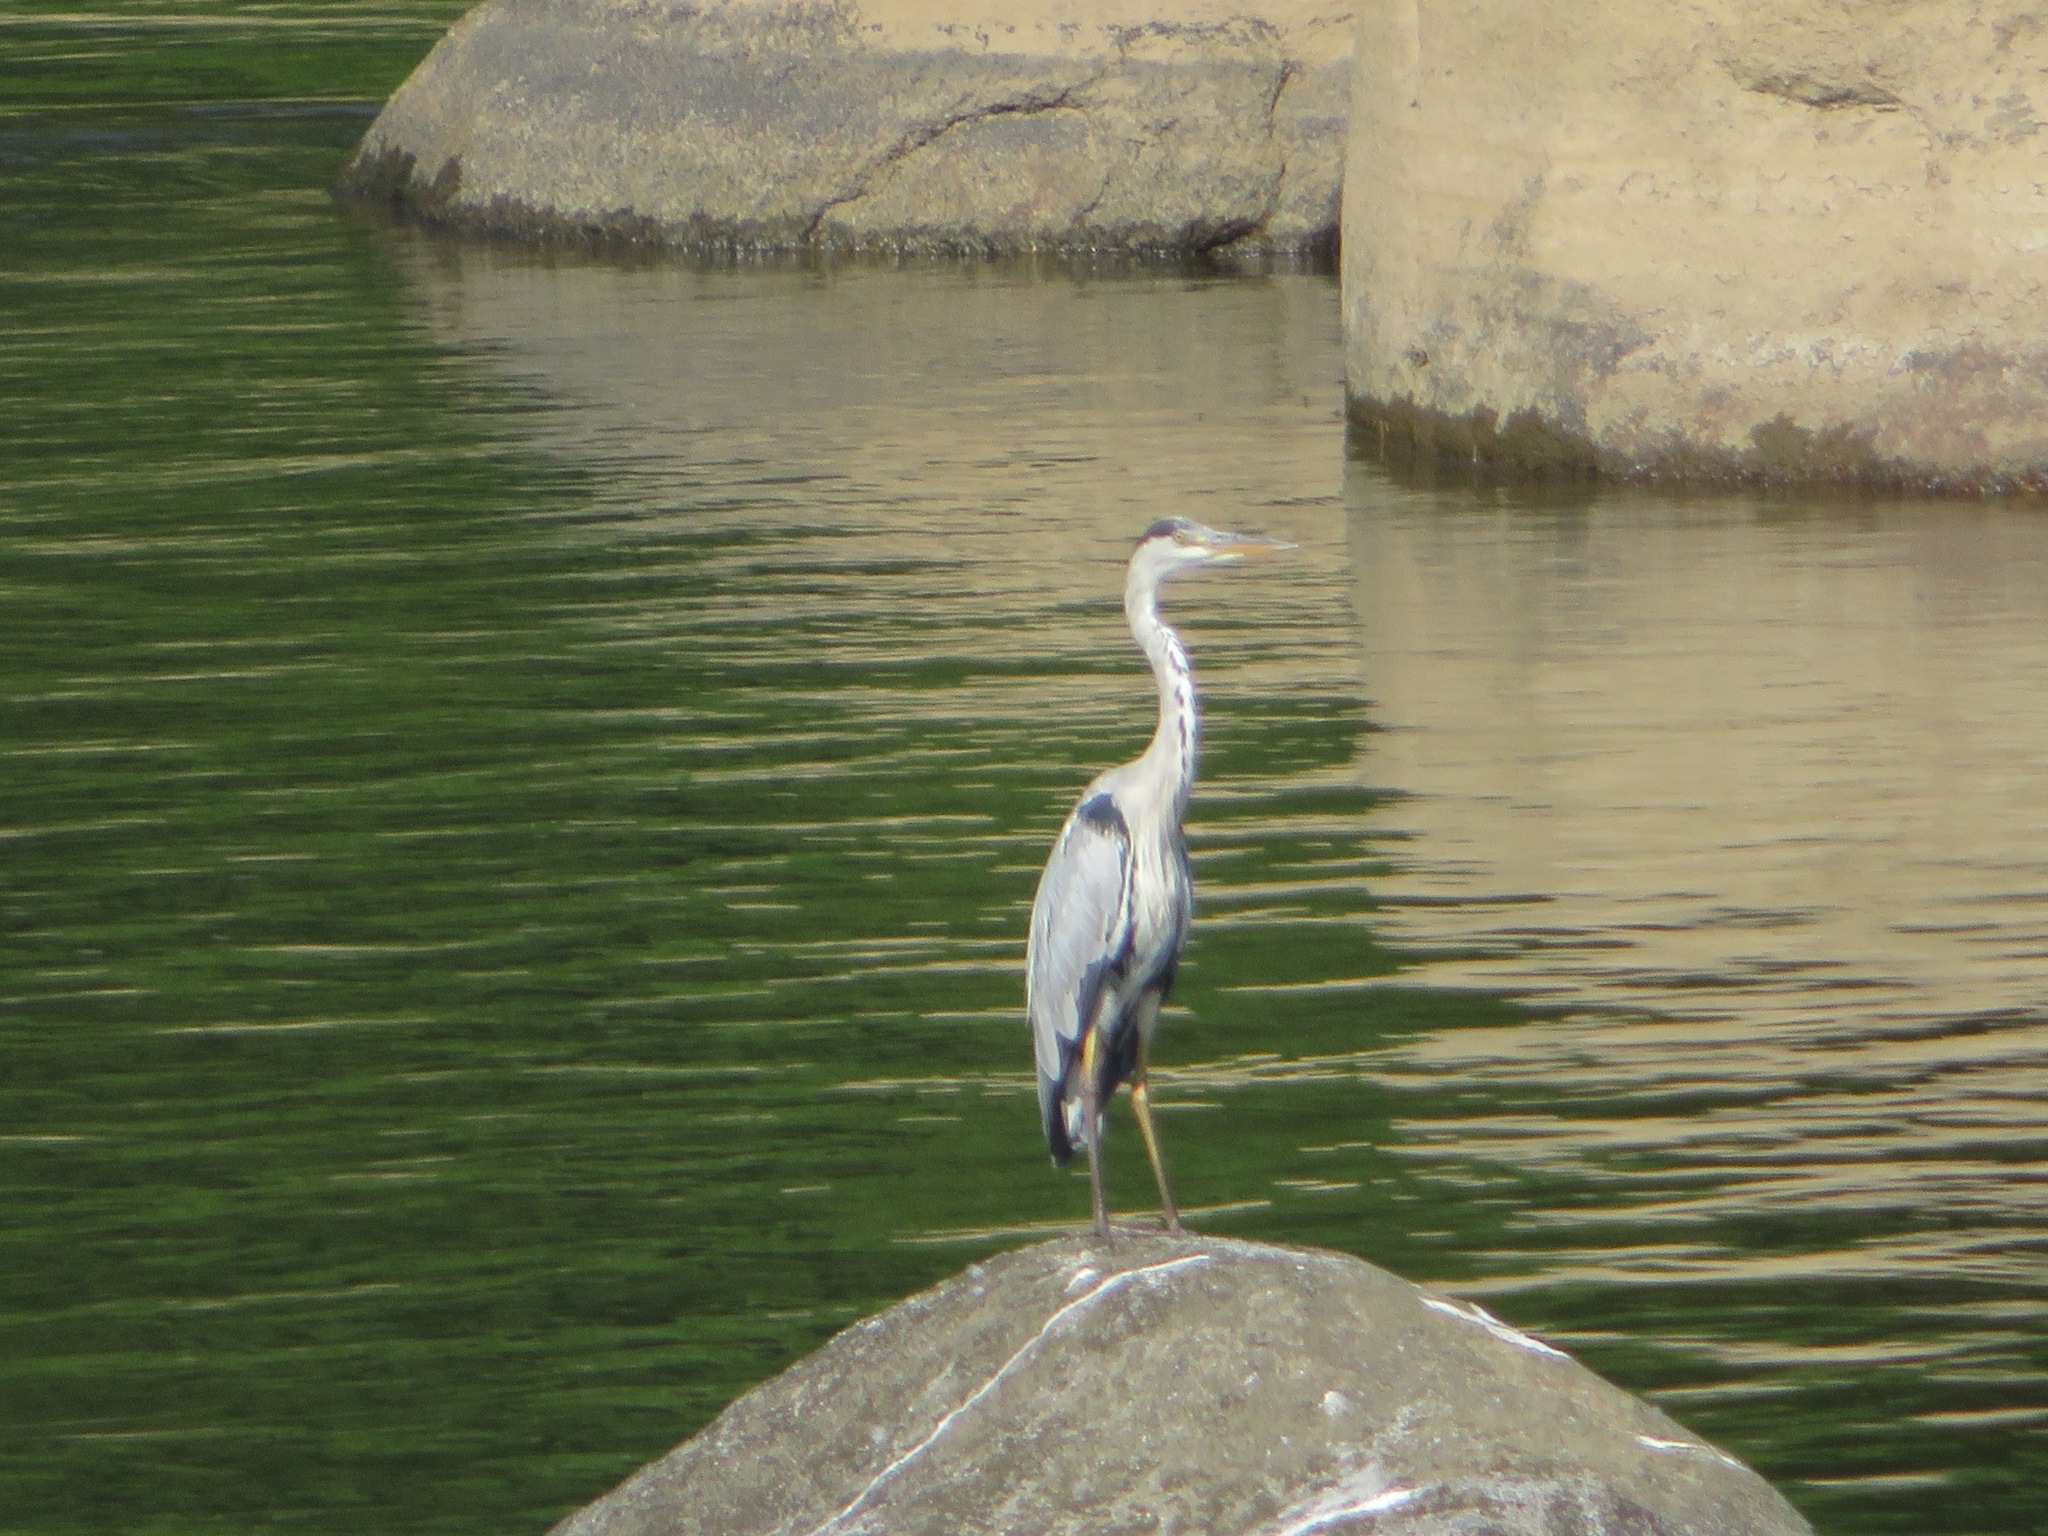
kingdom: Animalia
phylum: Chordata
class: Aves
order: Pelecaniformes
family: Ardeidae
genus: Ardea
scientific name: Ardea cinerea
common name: Grey heron
